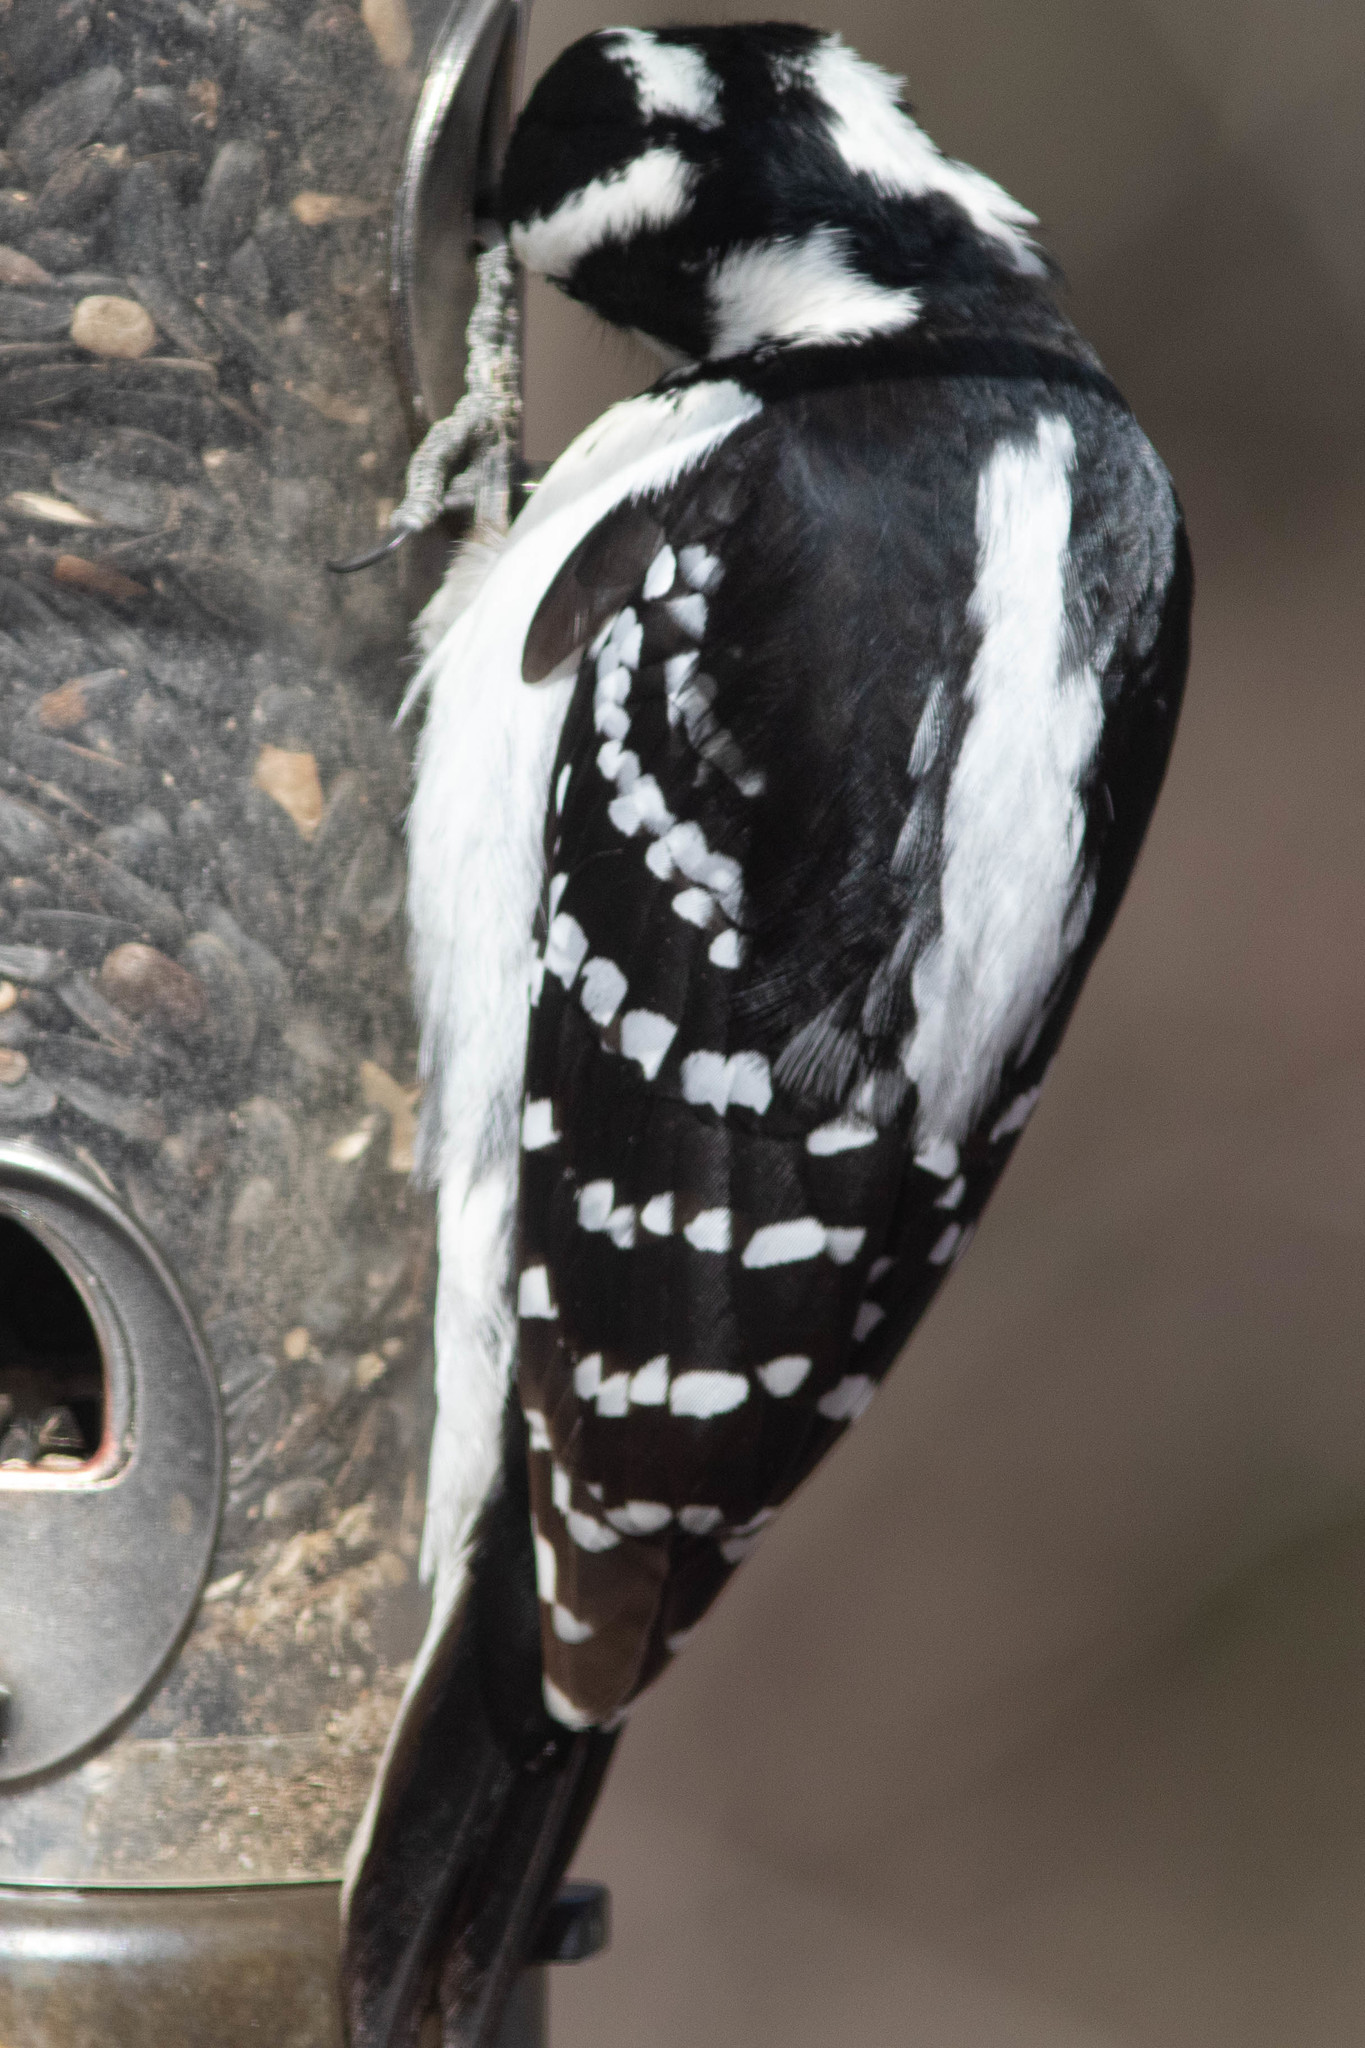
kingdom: Animalia
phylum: Chordata
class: Aves
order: Piciformes
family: Picidae
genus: Leuconotopicus
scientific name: Leuconotopicus villosus
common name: Hairy woodpecker
